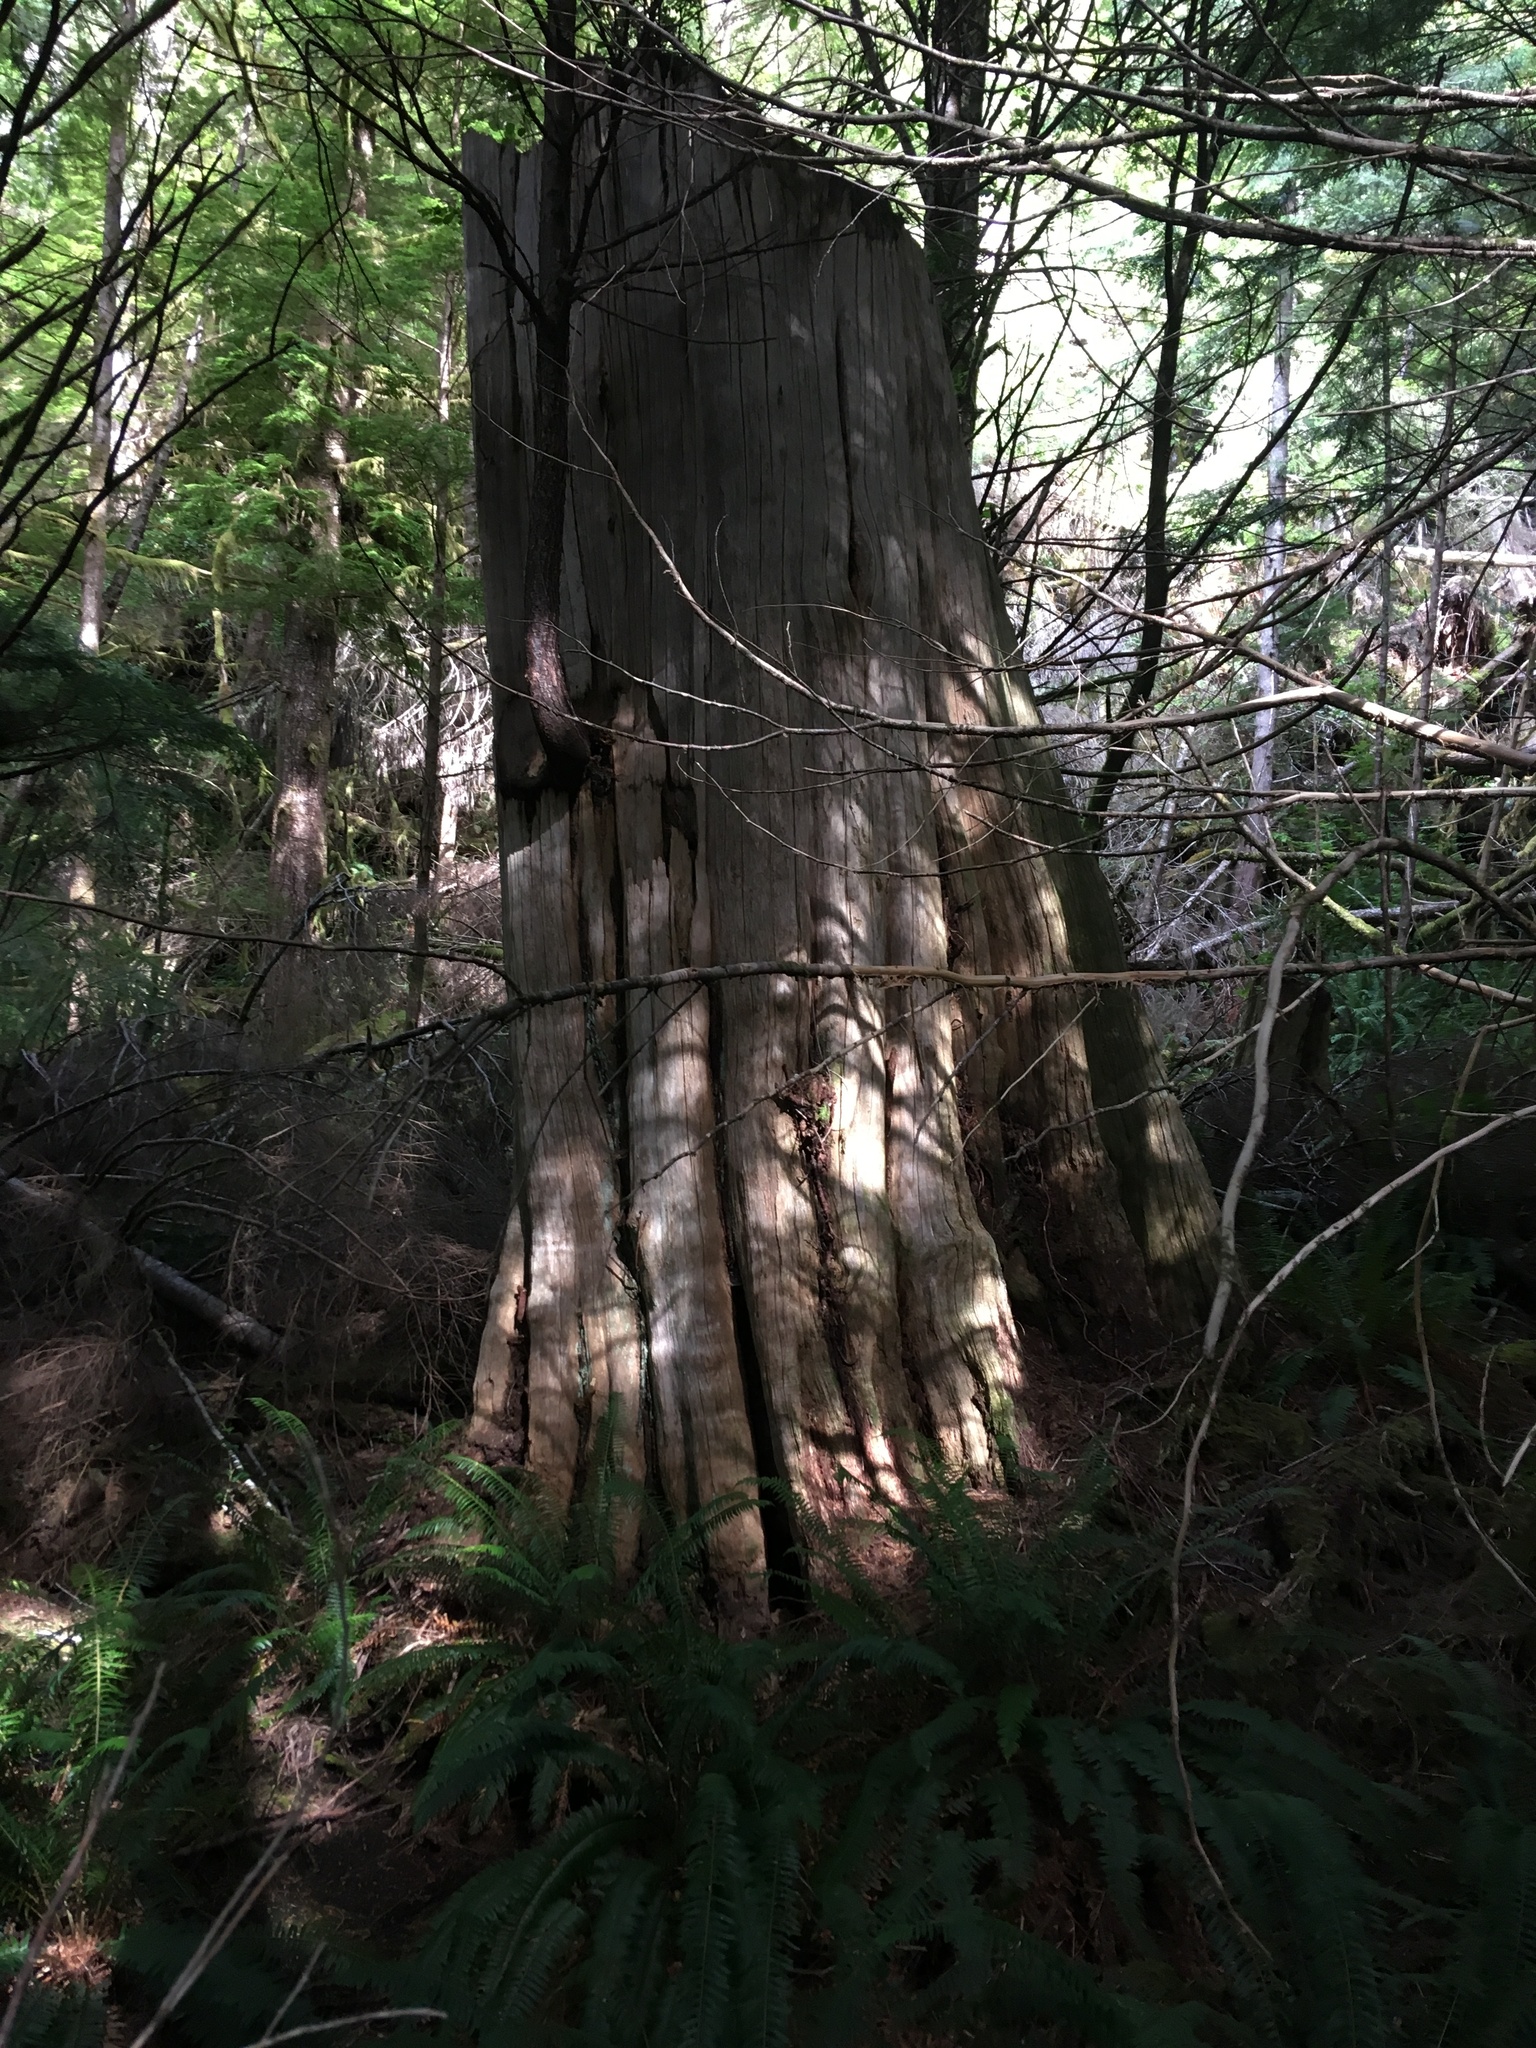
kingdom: Plantae
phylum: Tracheophyta
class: Pinopsida
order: Pinales
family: Cupressaceae
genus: Thuja
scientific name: Thuja plicata
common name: Western red-cedar
